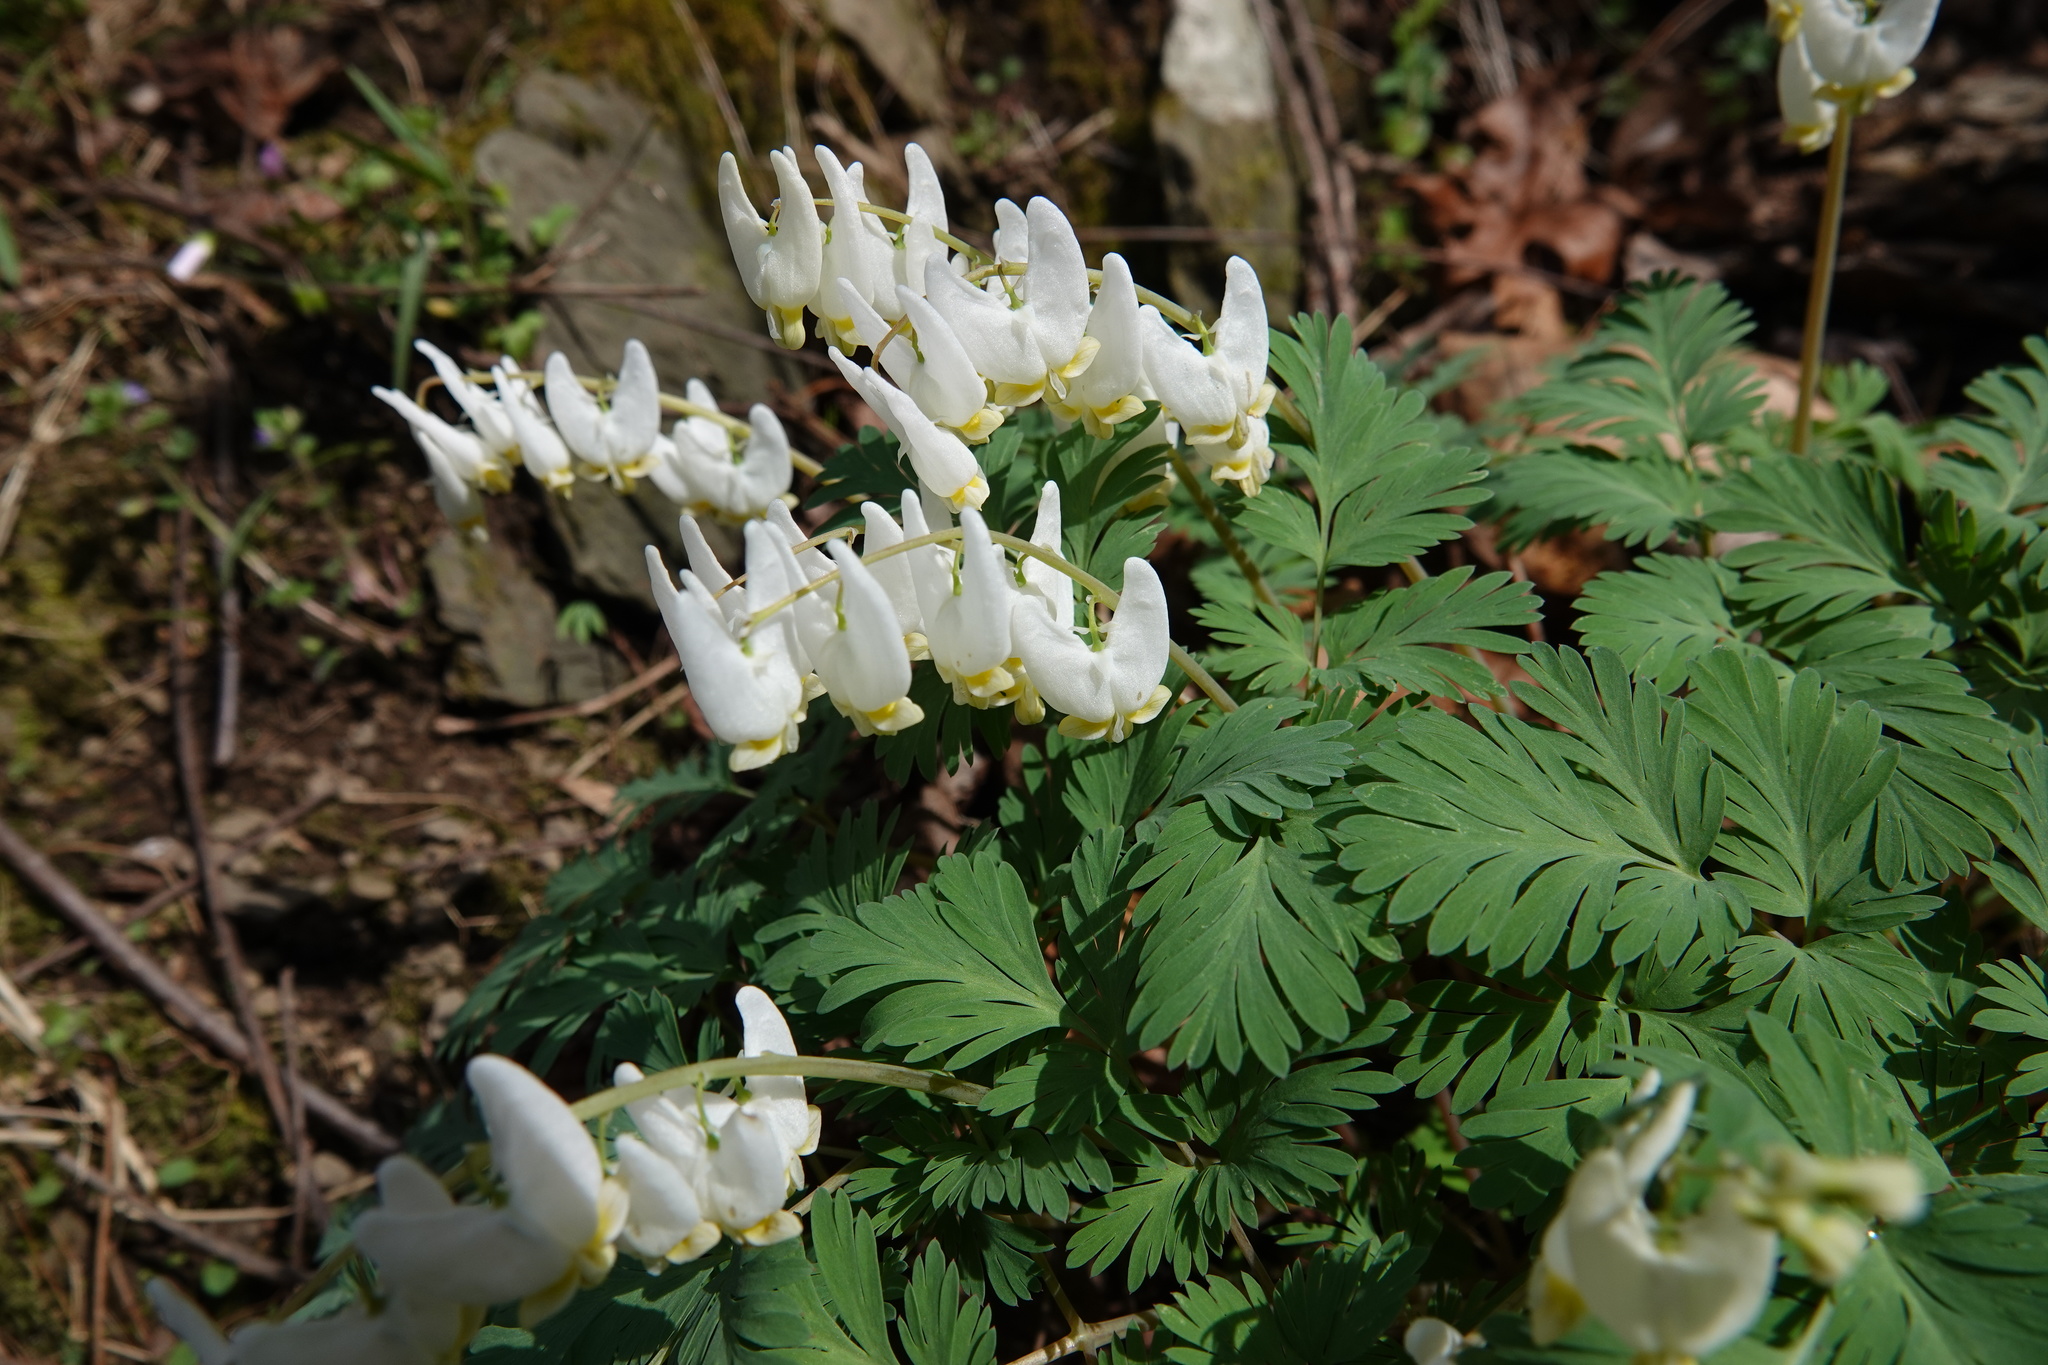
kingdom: Plantae
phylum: Tracheophyta
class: Magnoliopsida
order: Ranunculales
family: Papaveraceae
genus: Dicentra
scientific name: Dicentra cucullaria
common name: Dutchman's breeches
